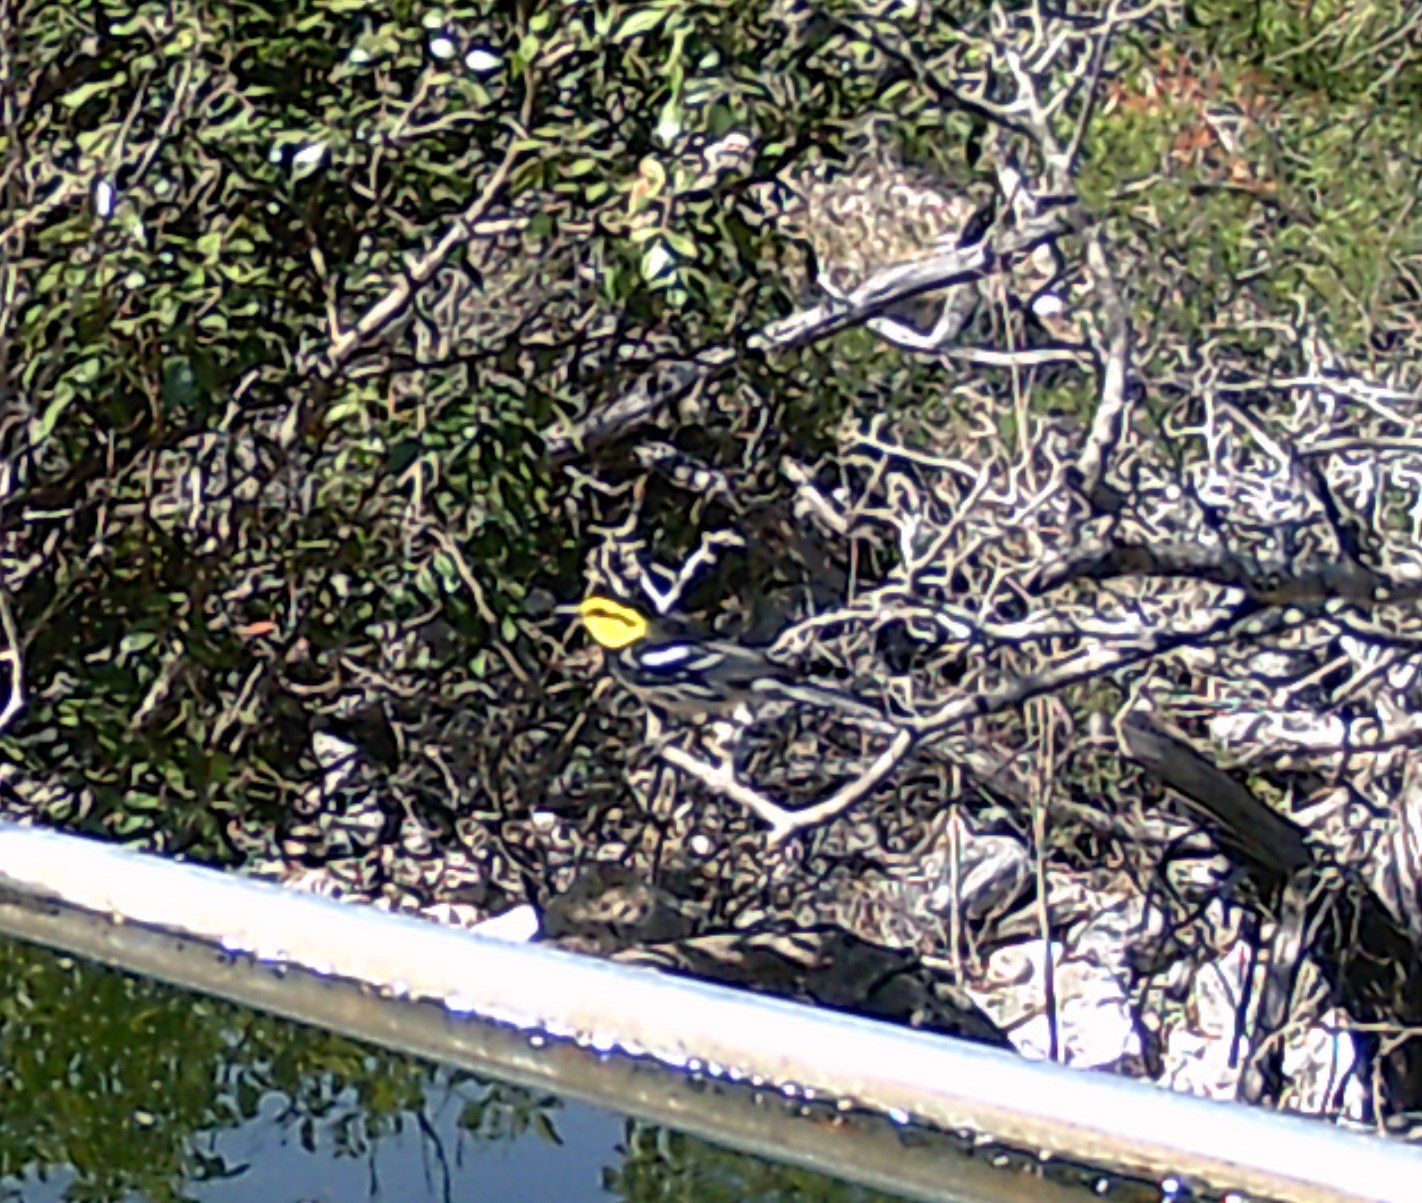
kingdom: Animalia
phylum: Chordata
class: Aves
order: Passeriformes
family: Parulidae
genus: Setophaga
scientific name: Setophaga chrysoparia
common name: Golden-cheeked warbler
